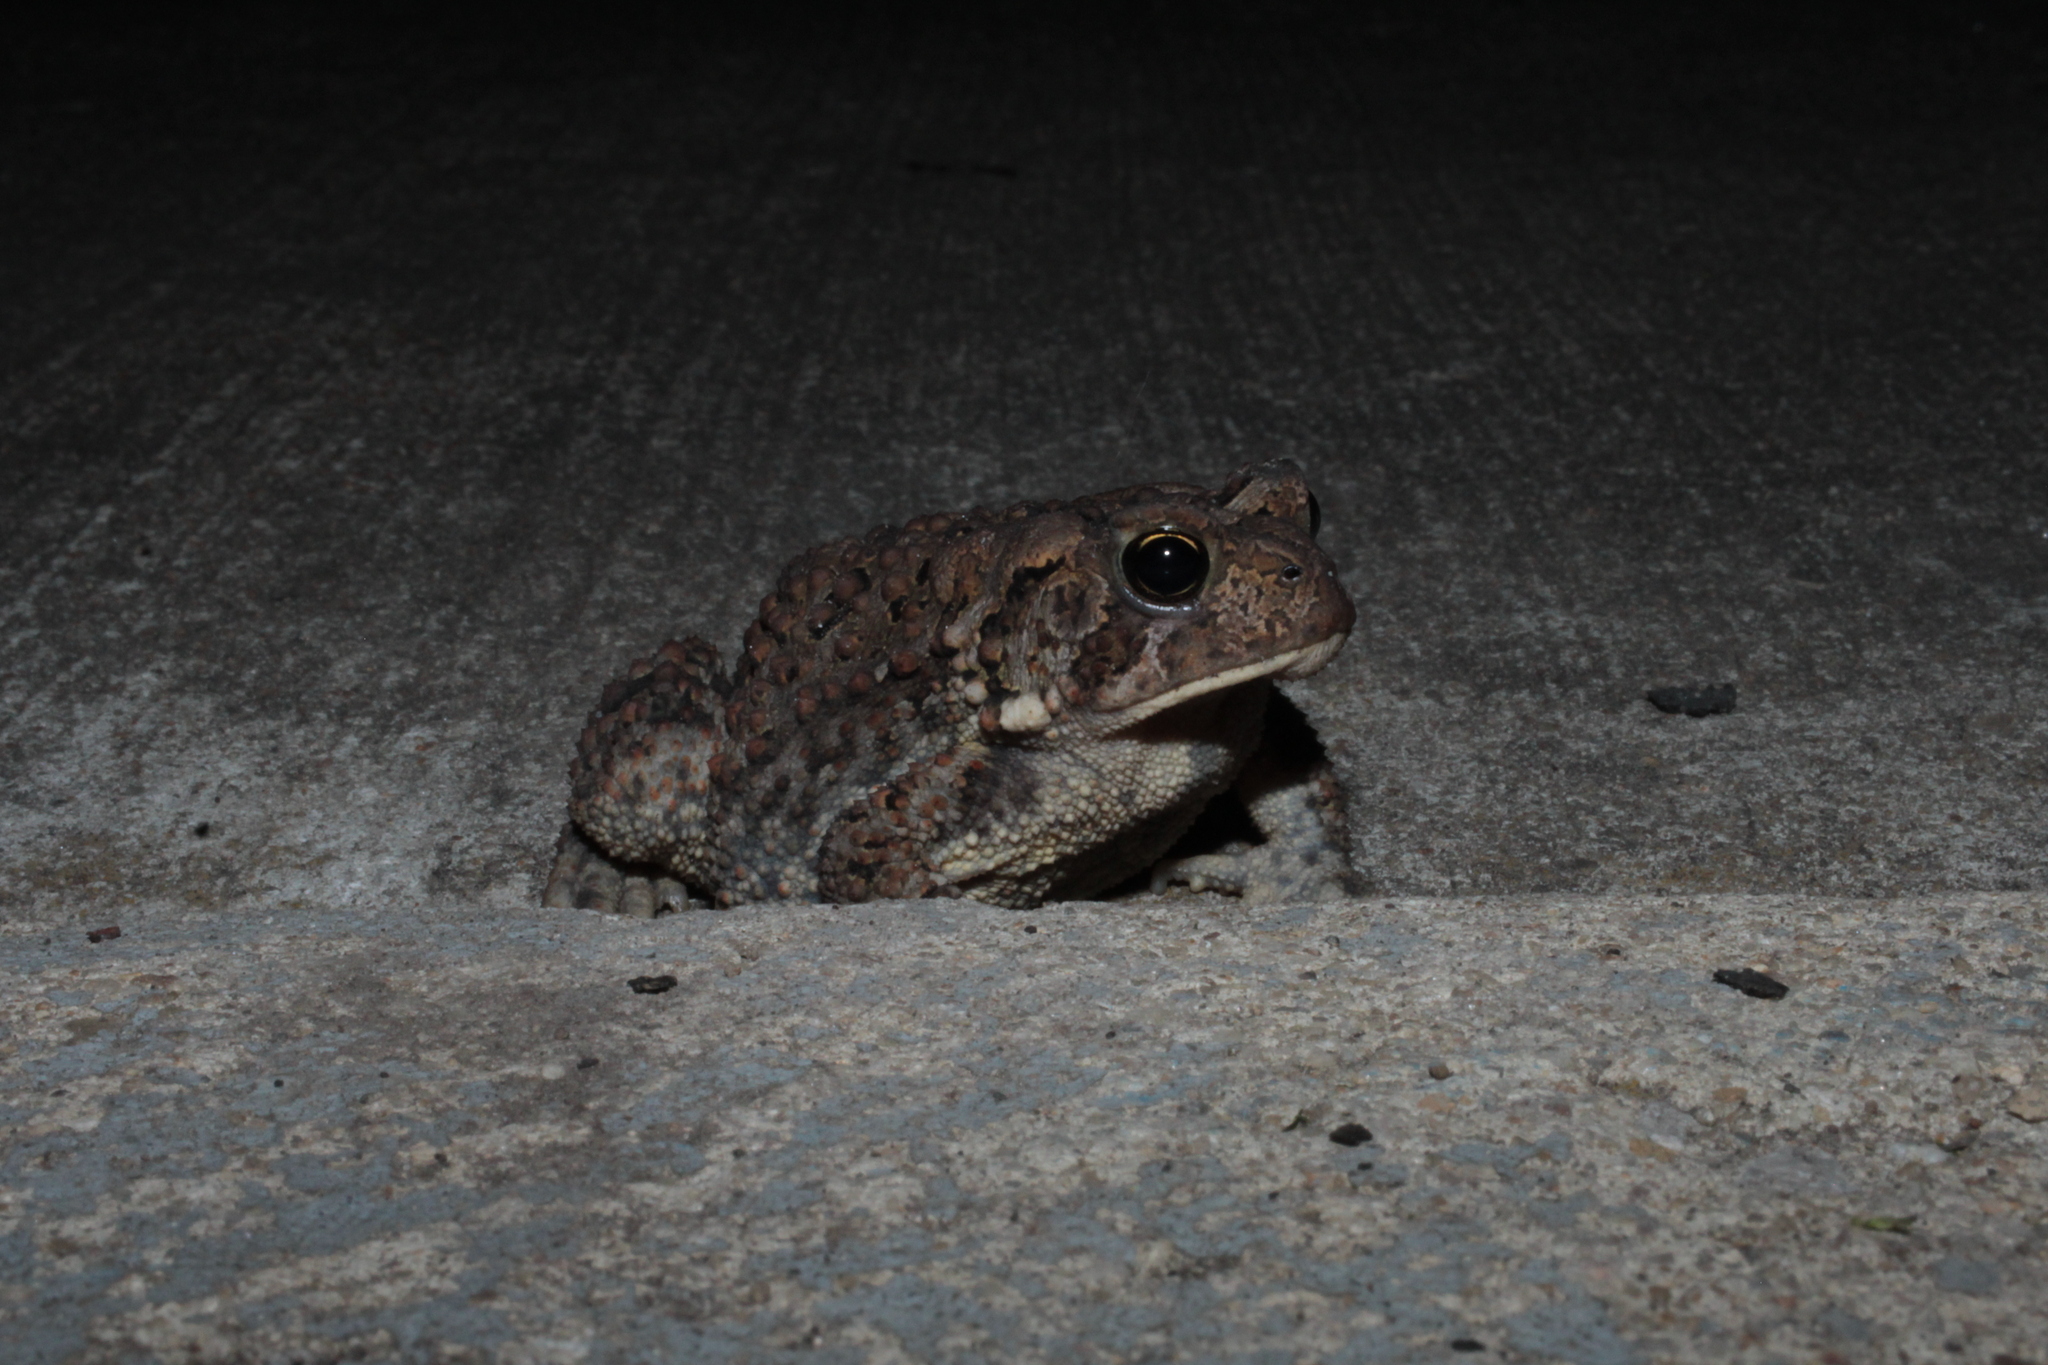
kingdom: Animalia
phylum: Chordata
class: Amphibia
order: Anura
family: Bufonidae
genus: Anaxyrus
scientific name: Anaxyrus americanus
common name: American toad
